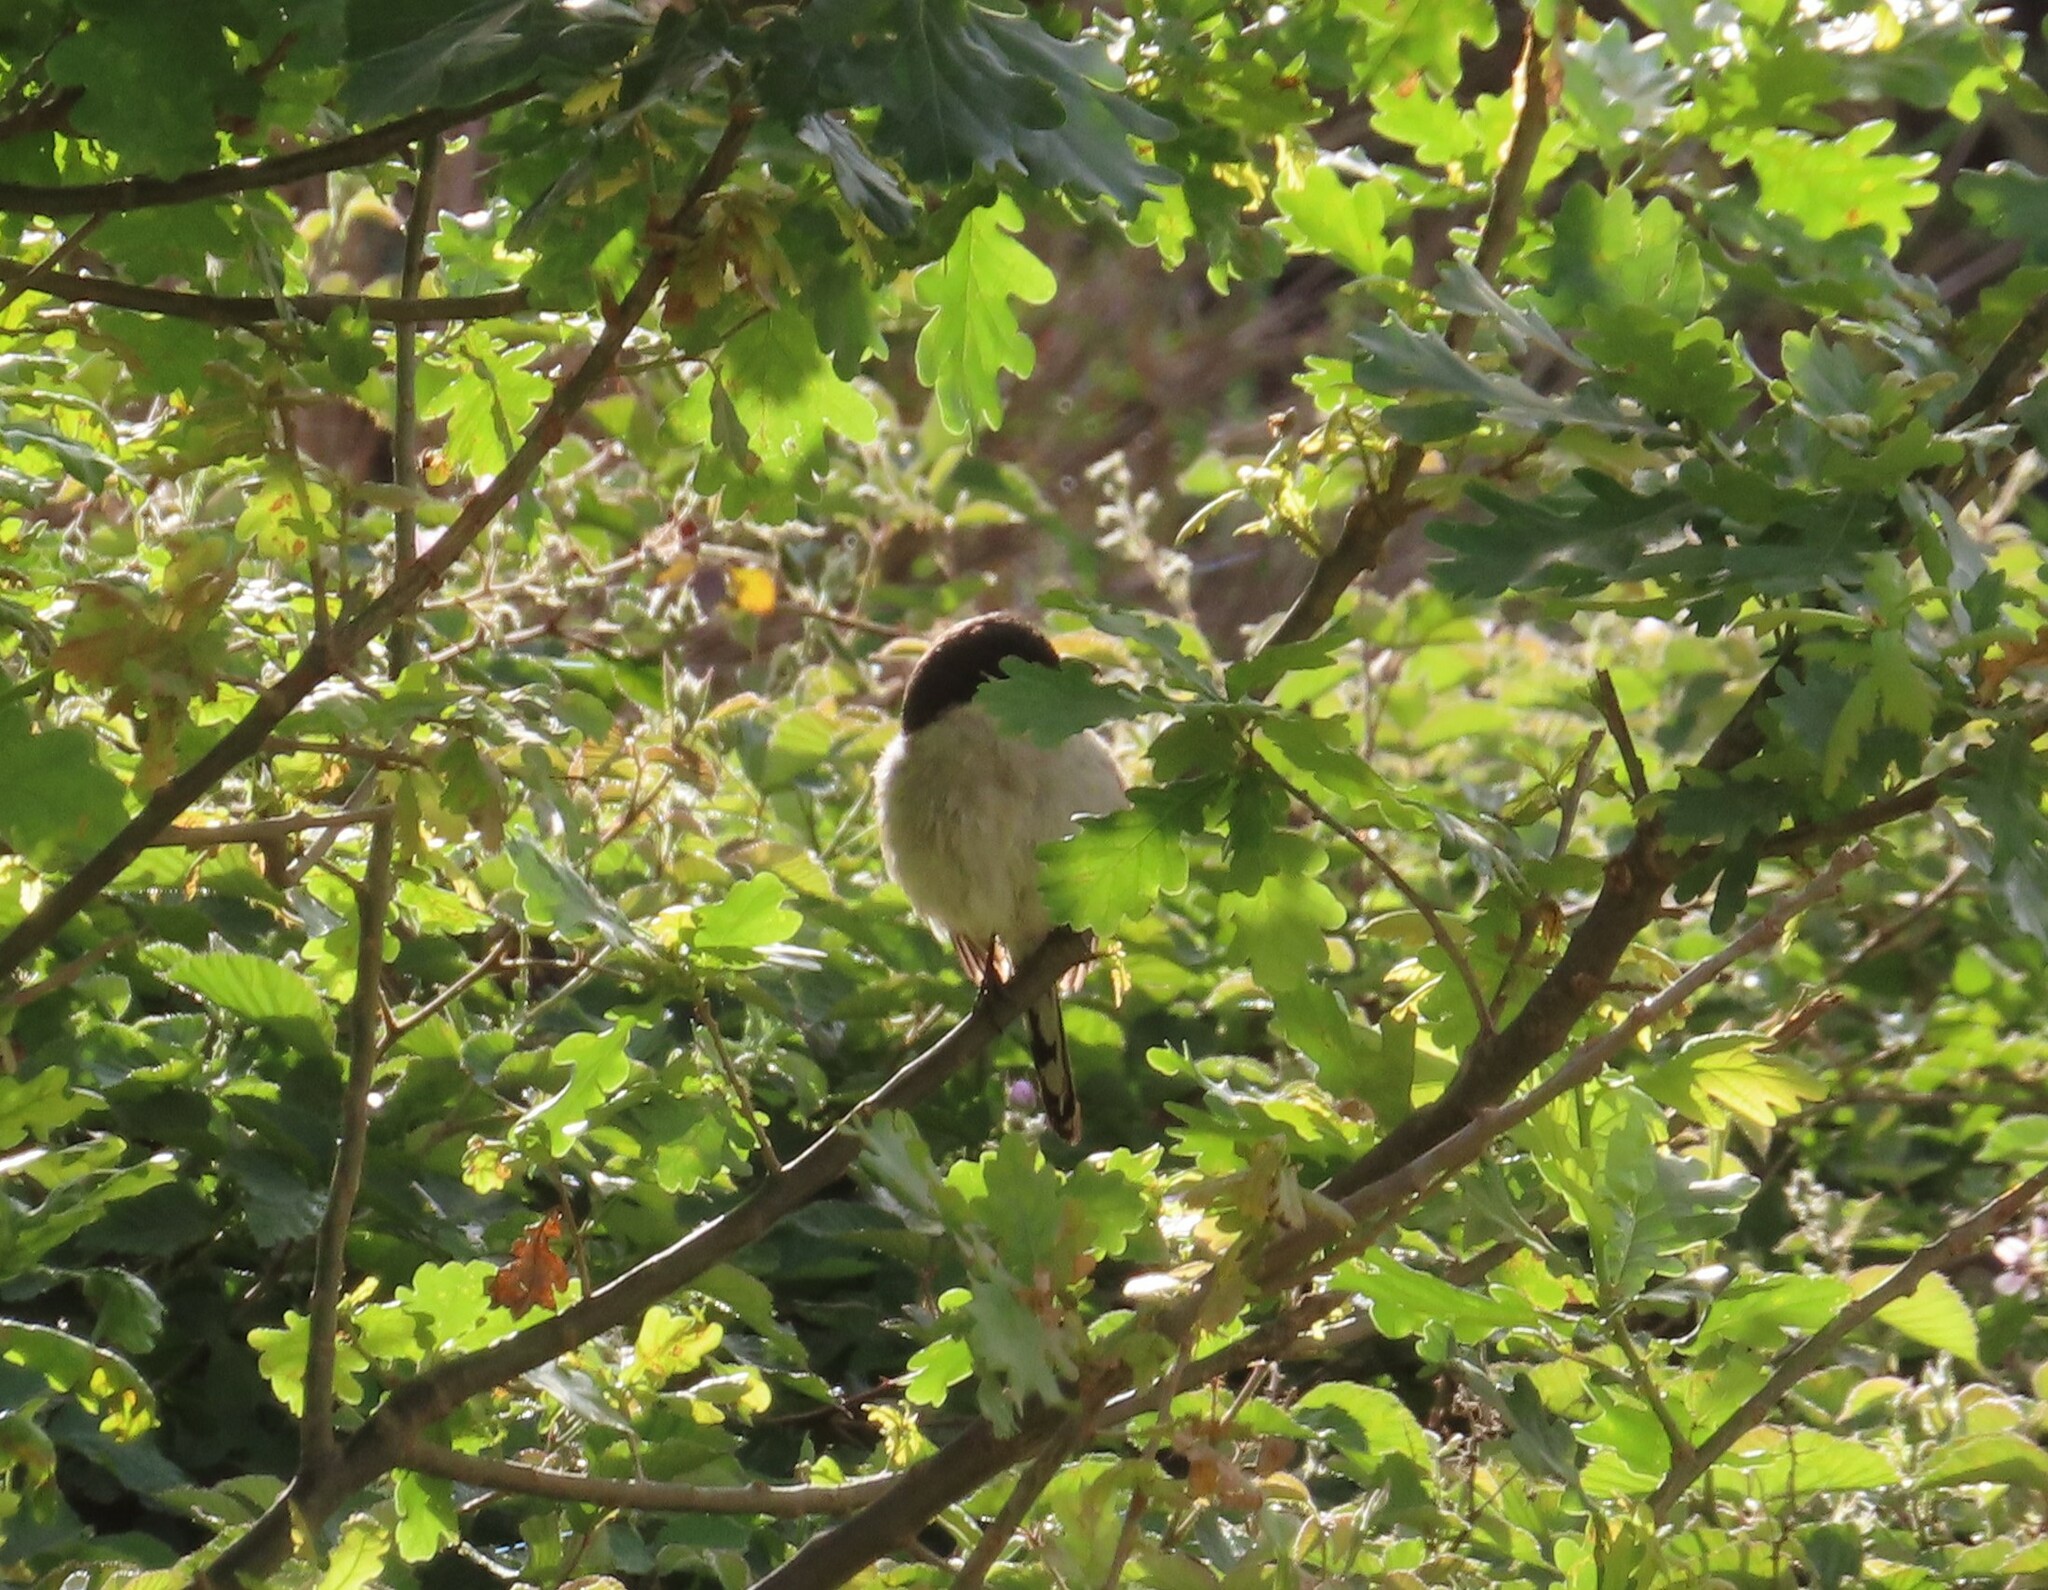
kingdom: Animalia
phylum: Chordata
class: Aves
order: Passeriformes
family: Laniidae
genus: Lanius
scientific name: Lanius collaris
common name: Southern fiscal
